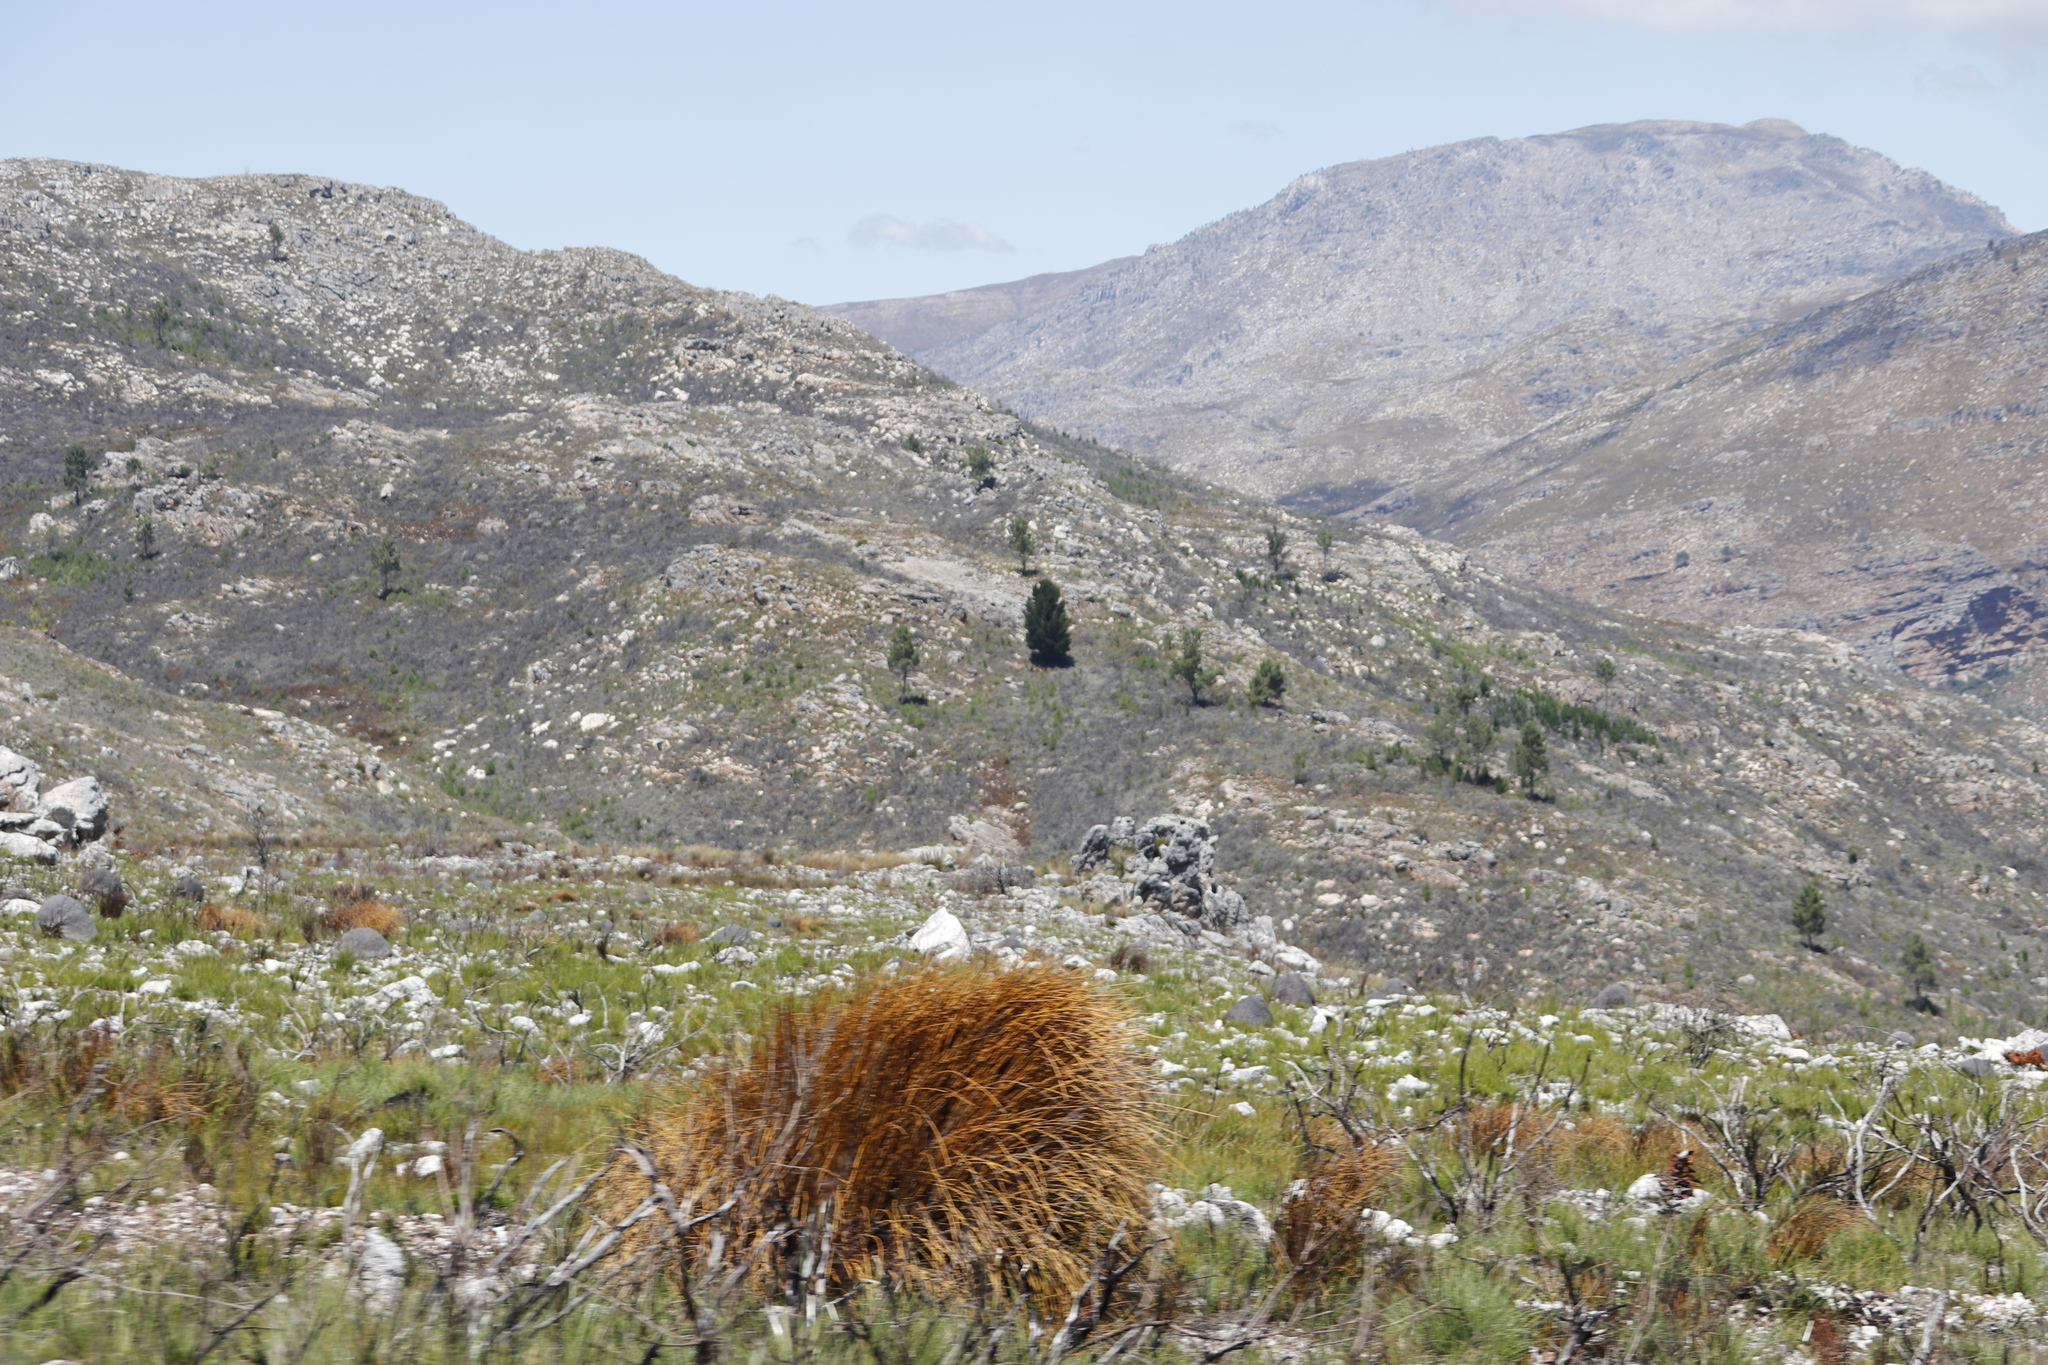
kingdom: Plantae
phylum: Tracheophyta
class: Pinopsida
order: Pinales
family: Pinaceae
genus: Pinus
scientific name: Pinus radiata
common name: Monterey pine
